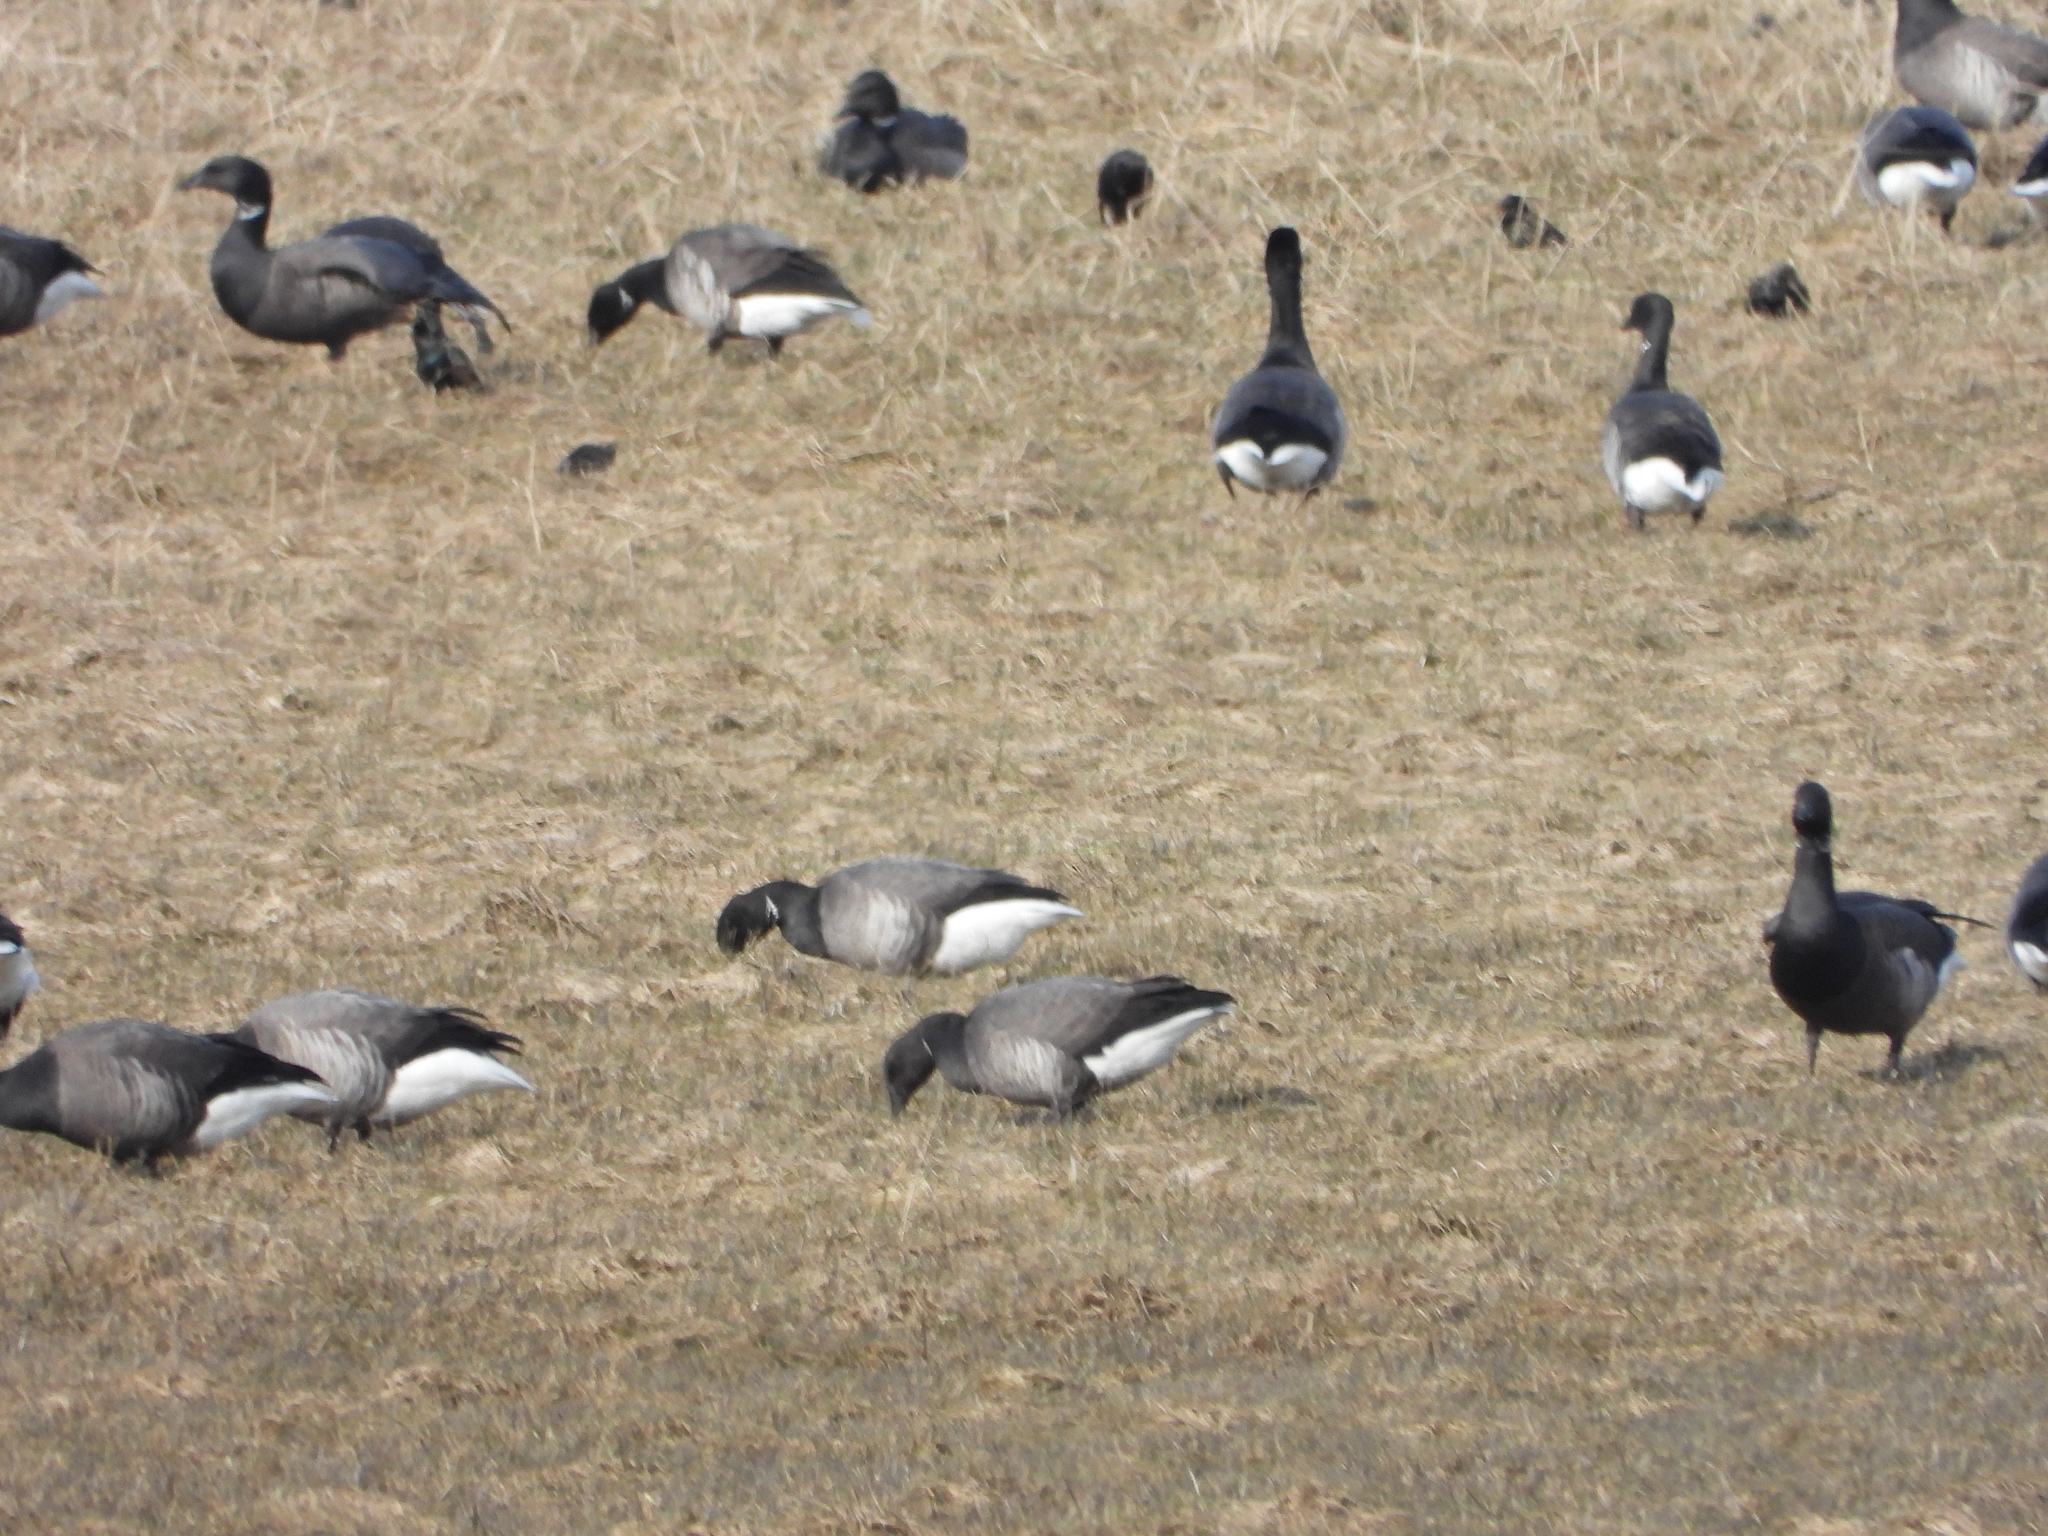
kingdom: Animalia
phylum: Chordata
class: Aves
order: Anseriformes
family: Anatidae
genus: Branta
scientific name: Branta bernicla
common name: Brant goose
